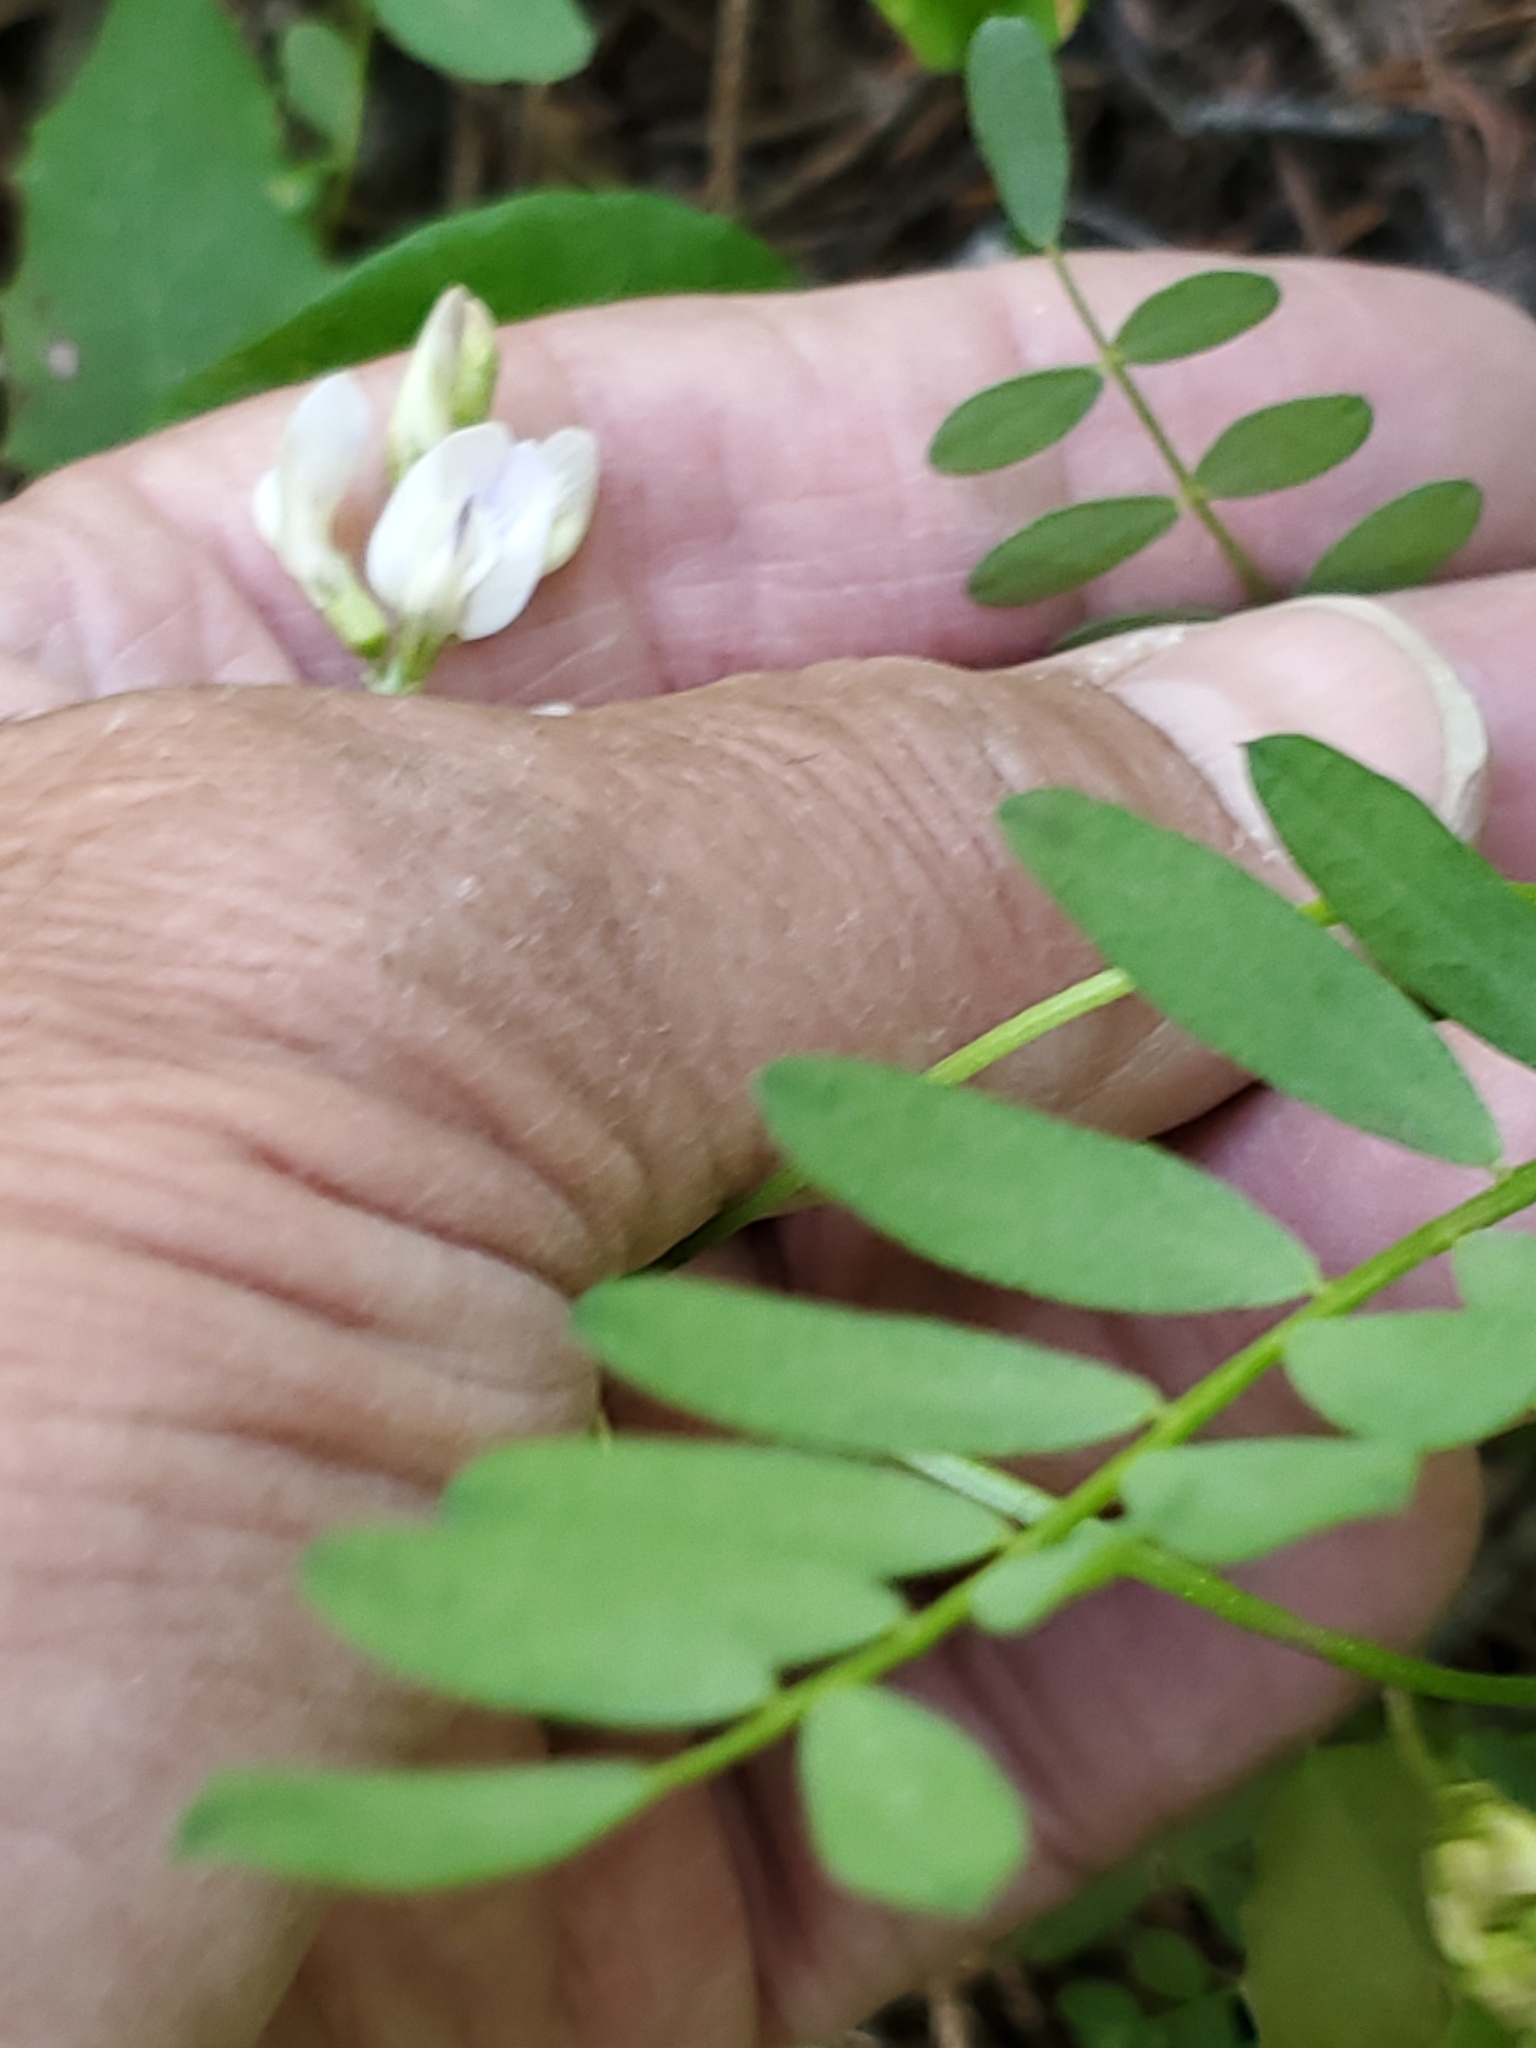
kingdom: Plantae
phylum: Tracheophyta
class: Magnoliopsida
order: Fabales
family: Fabaceae
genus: Astragalus
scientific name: Astragalus miser
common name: Timber milkvetch
